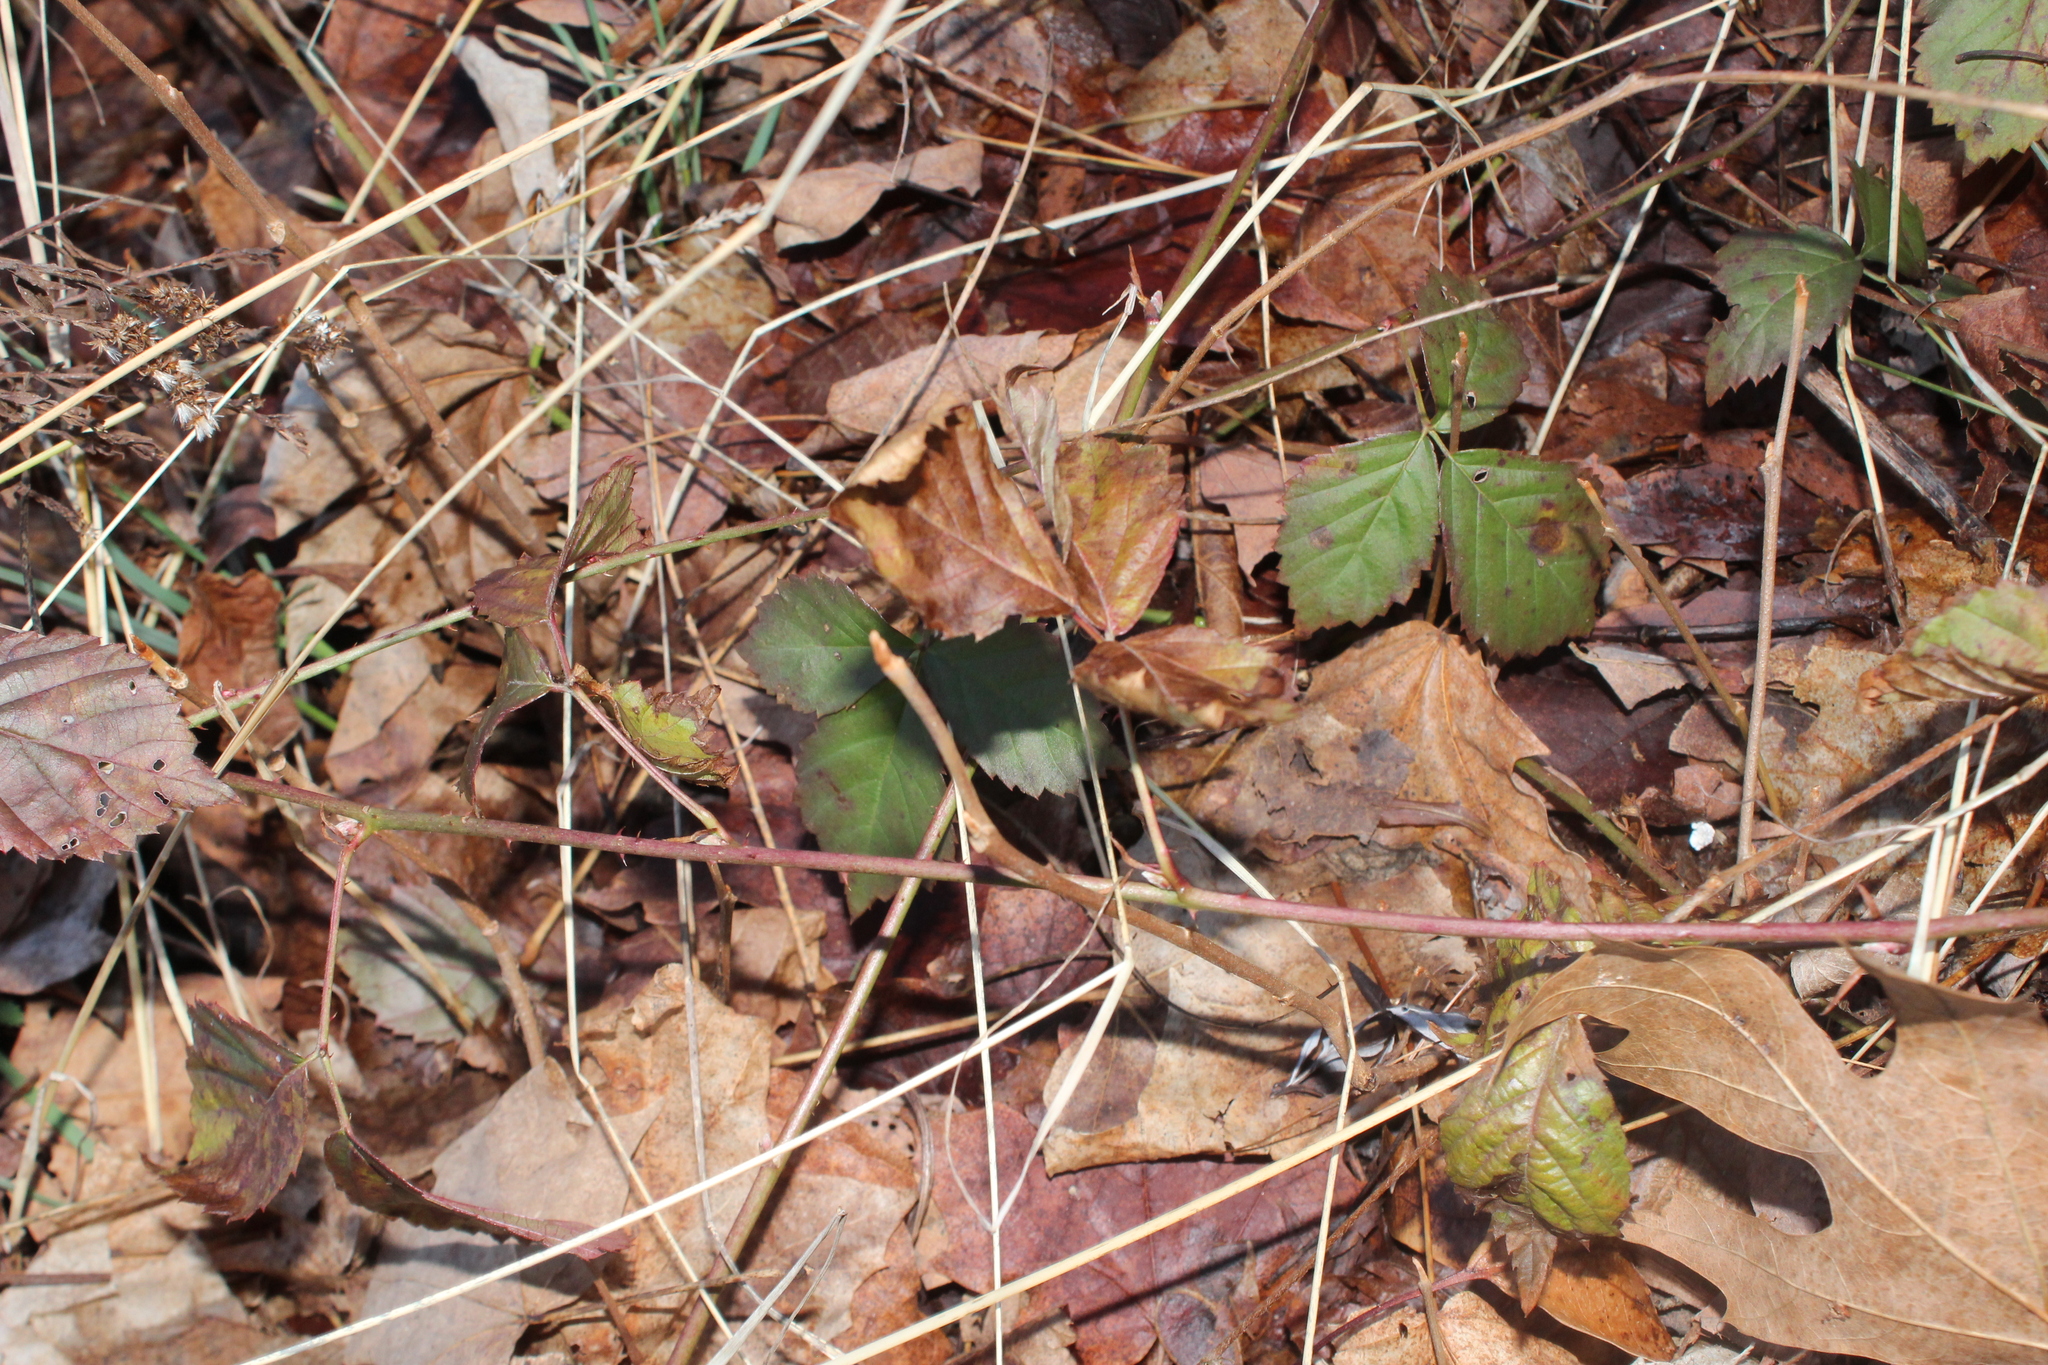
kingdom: Plantae
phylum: Tracheophyta
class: Magnoliopsida
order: Rosales
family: Rosaceae
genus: Rubus
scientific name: Rubus
